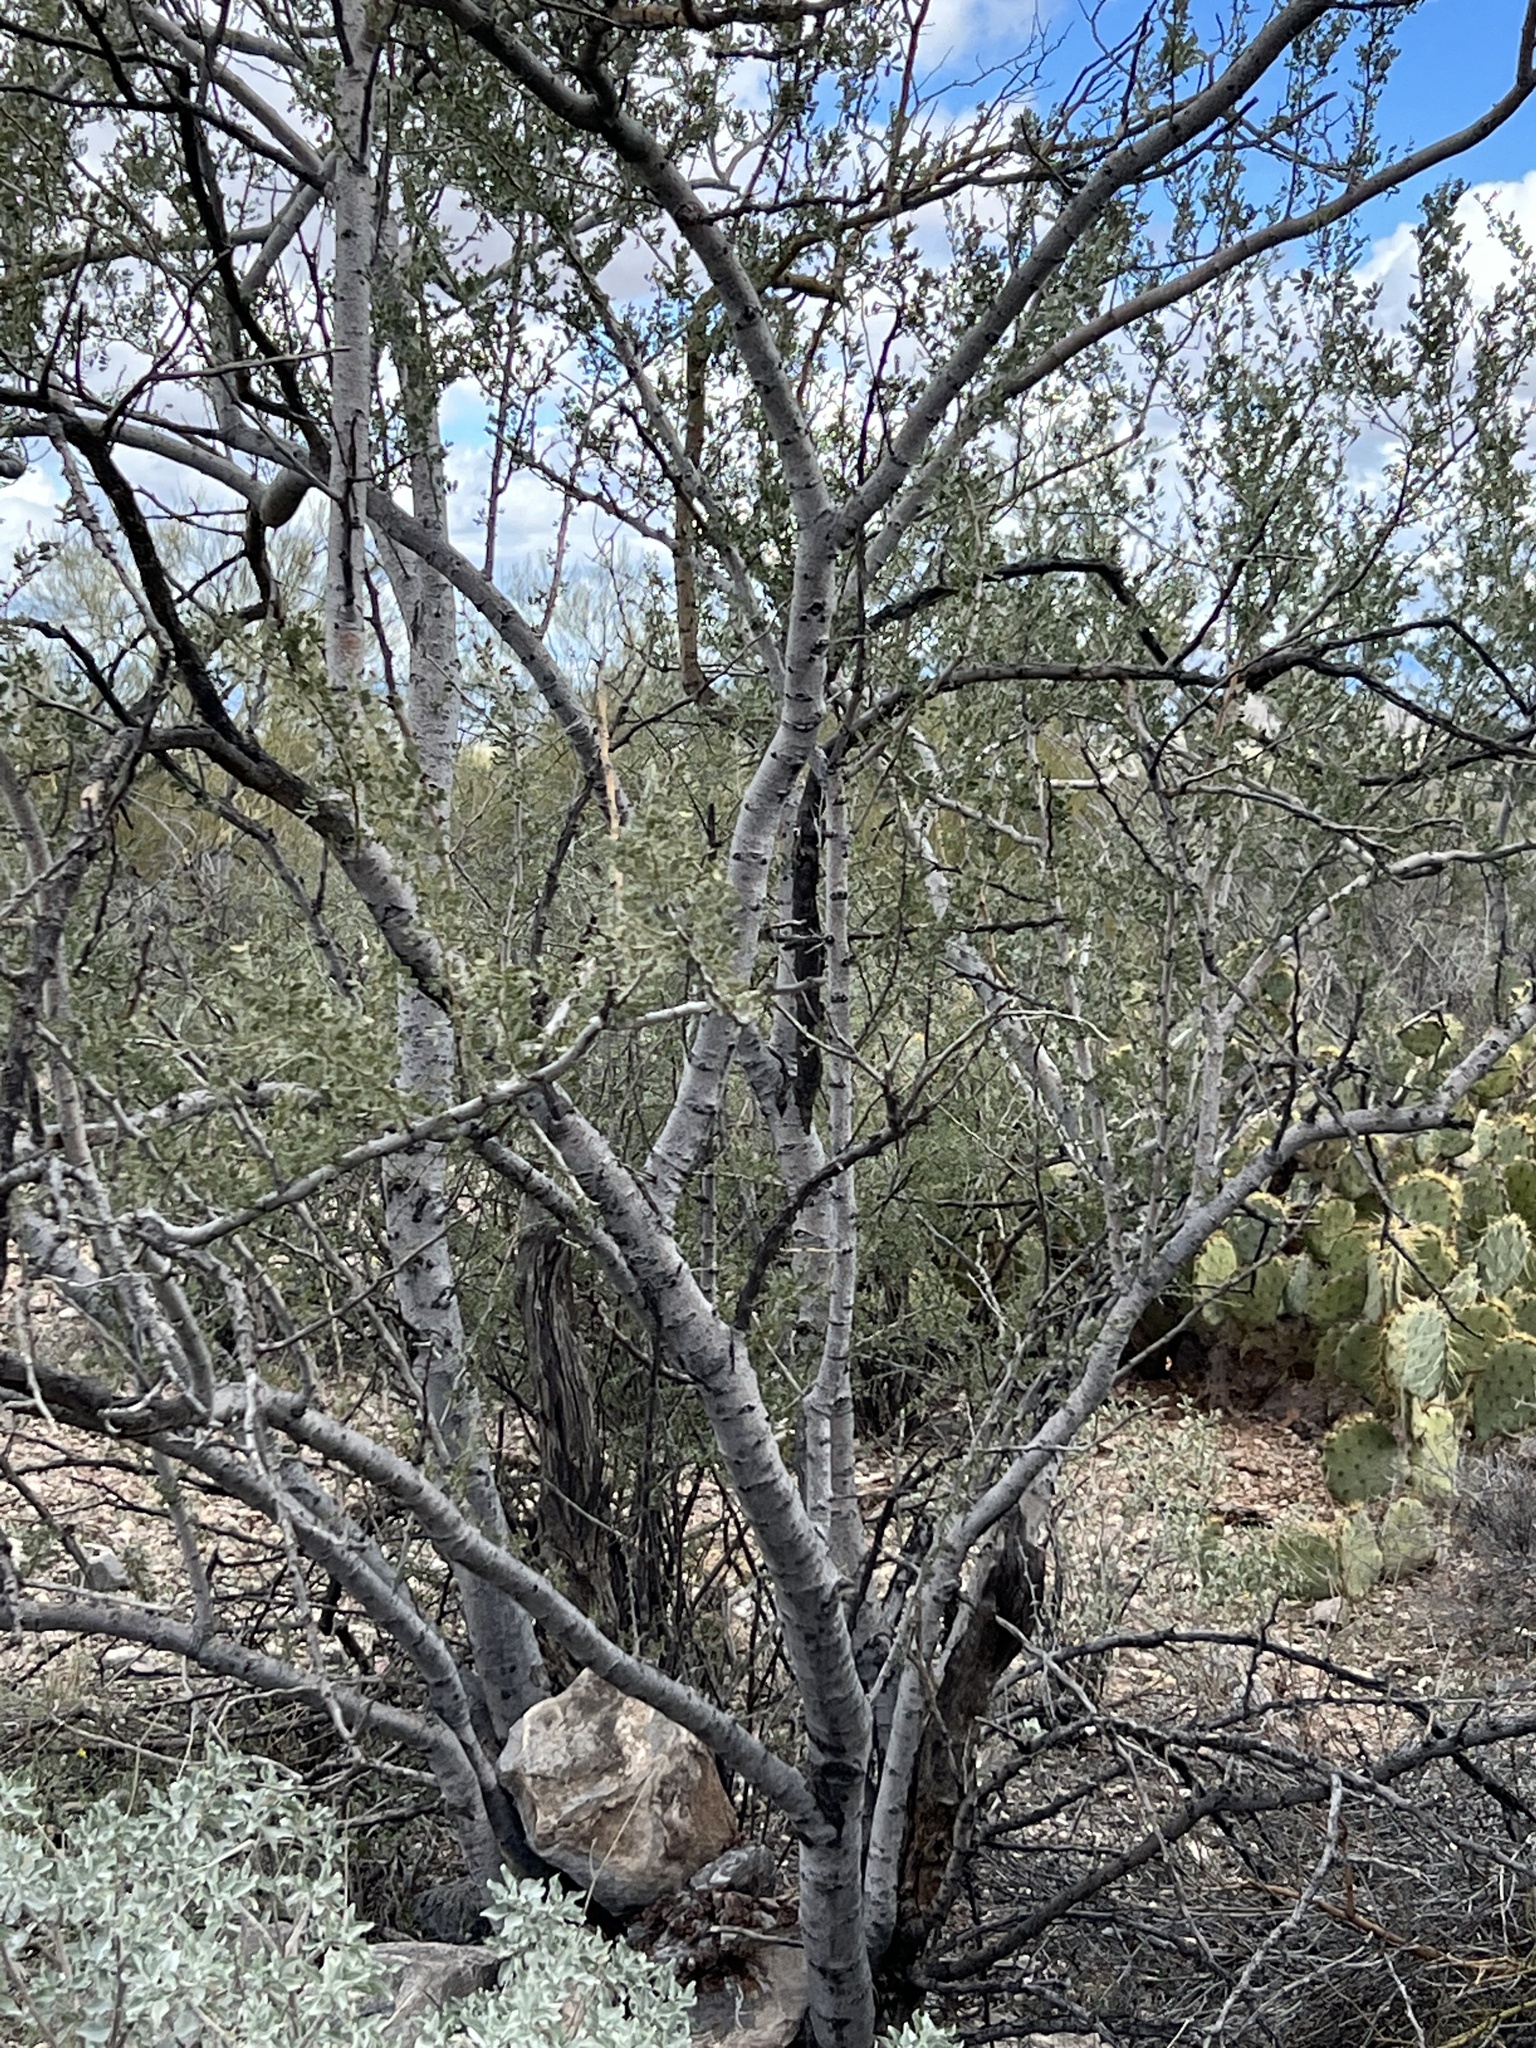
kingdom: Plantae
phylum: Tracheophyta
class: Magnoliopsida
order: Fabales
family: Fabaceae
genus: Olneya
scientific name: Olneya tesota
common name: Desert ironwood
